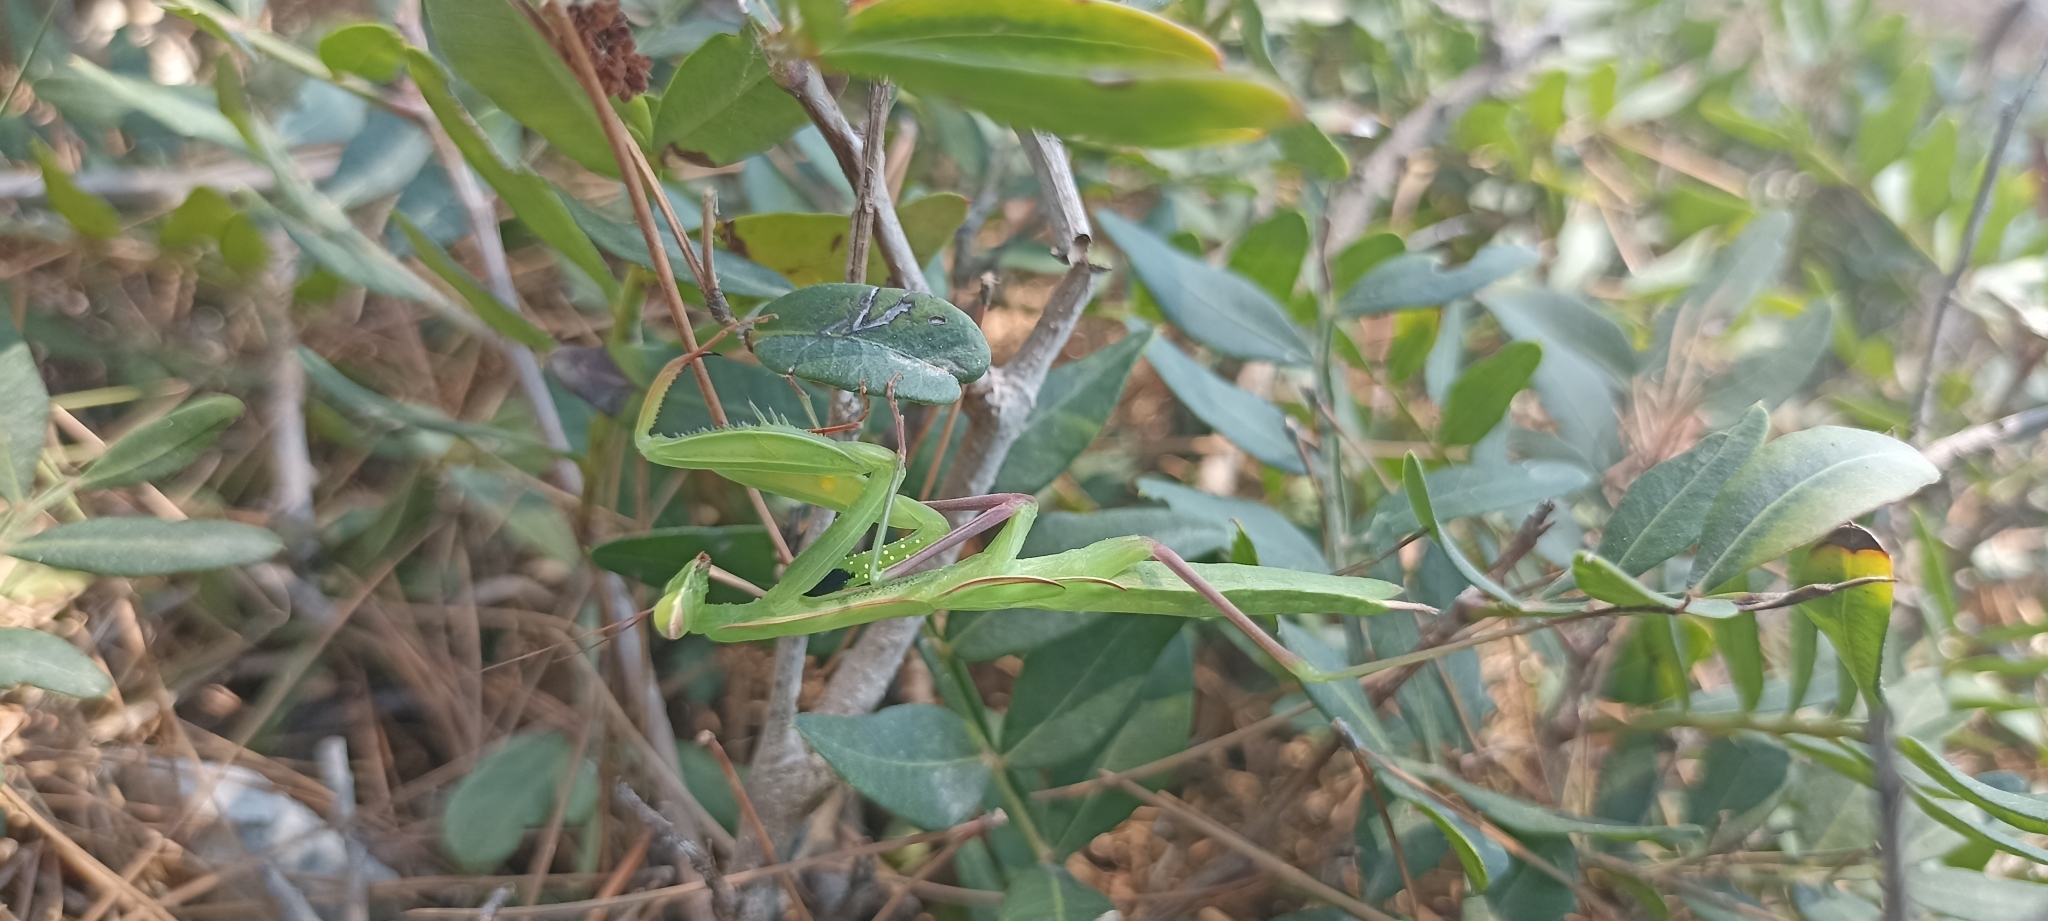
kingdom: Animalia
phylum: Arthropoda
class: Insecta
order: Mantodea
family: Mantidae
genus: Mantis
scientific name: Mantis religiosa
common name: Praying mantis
